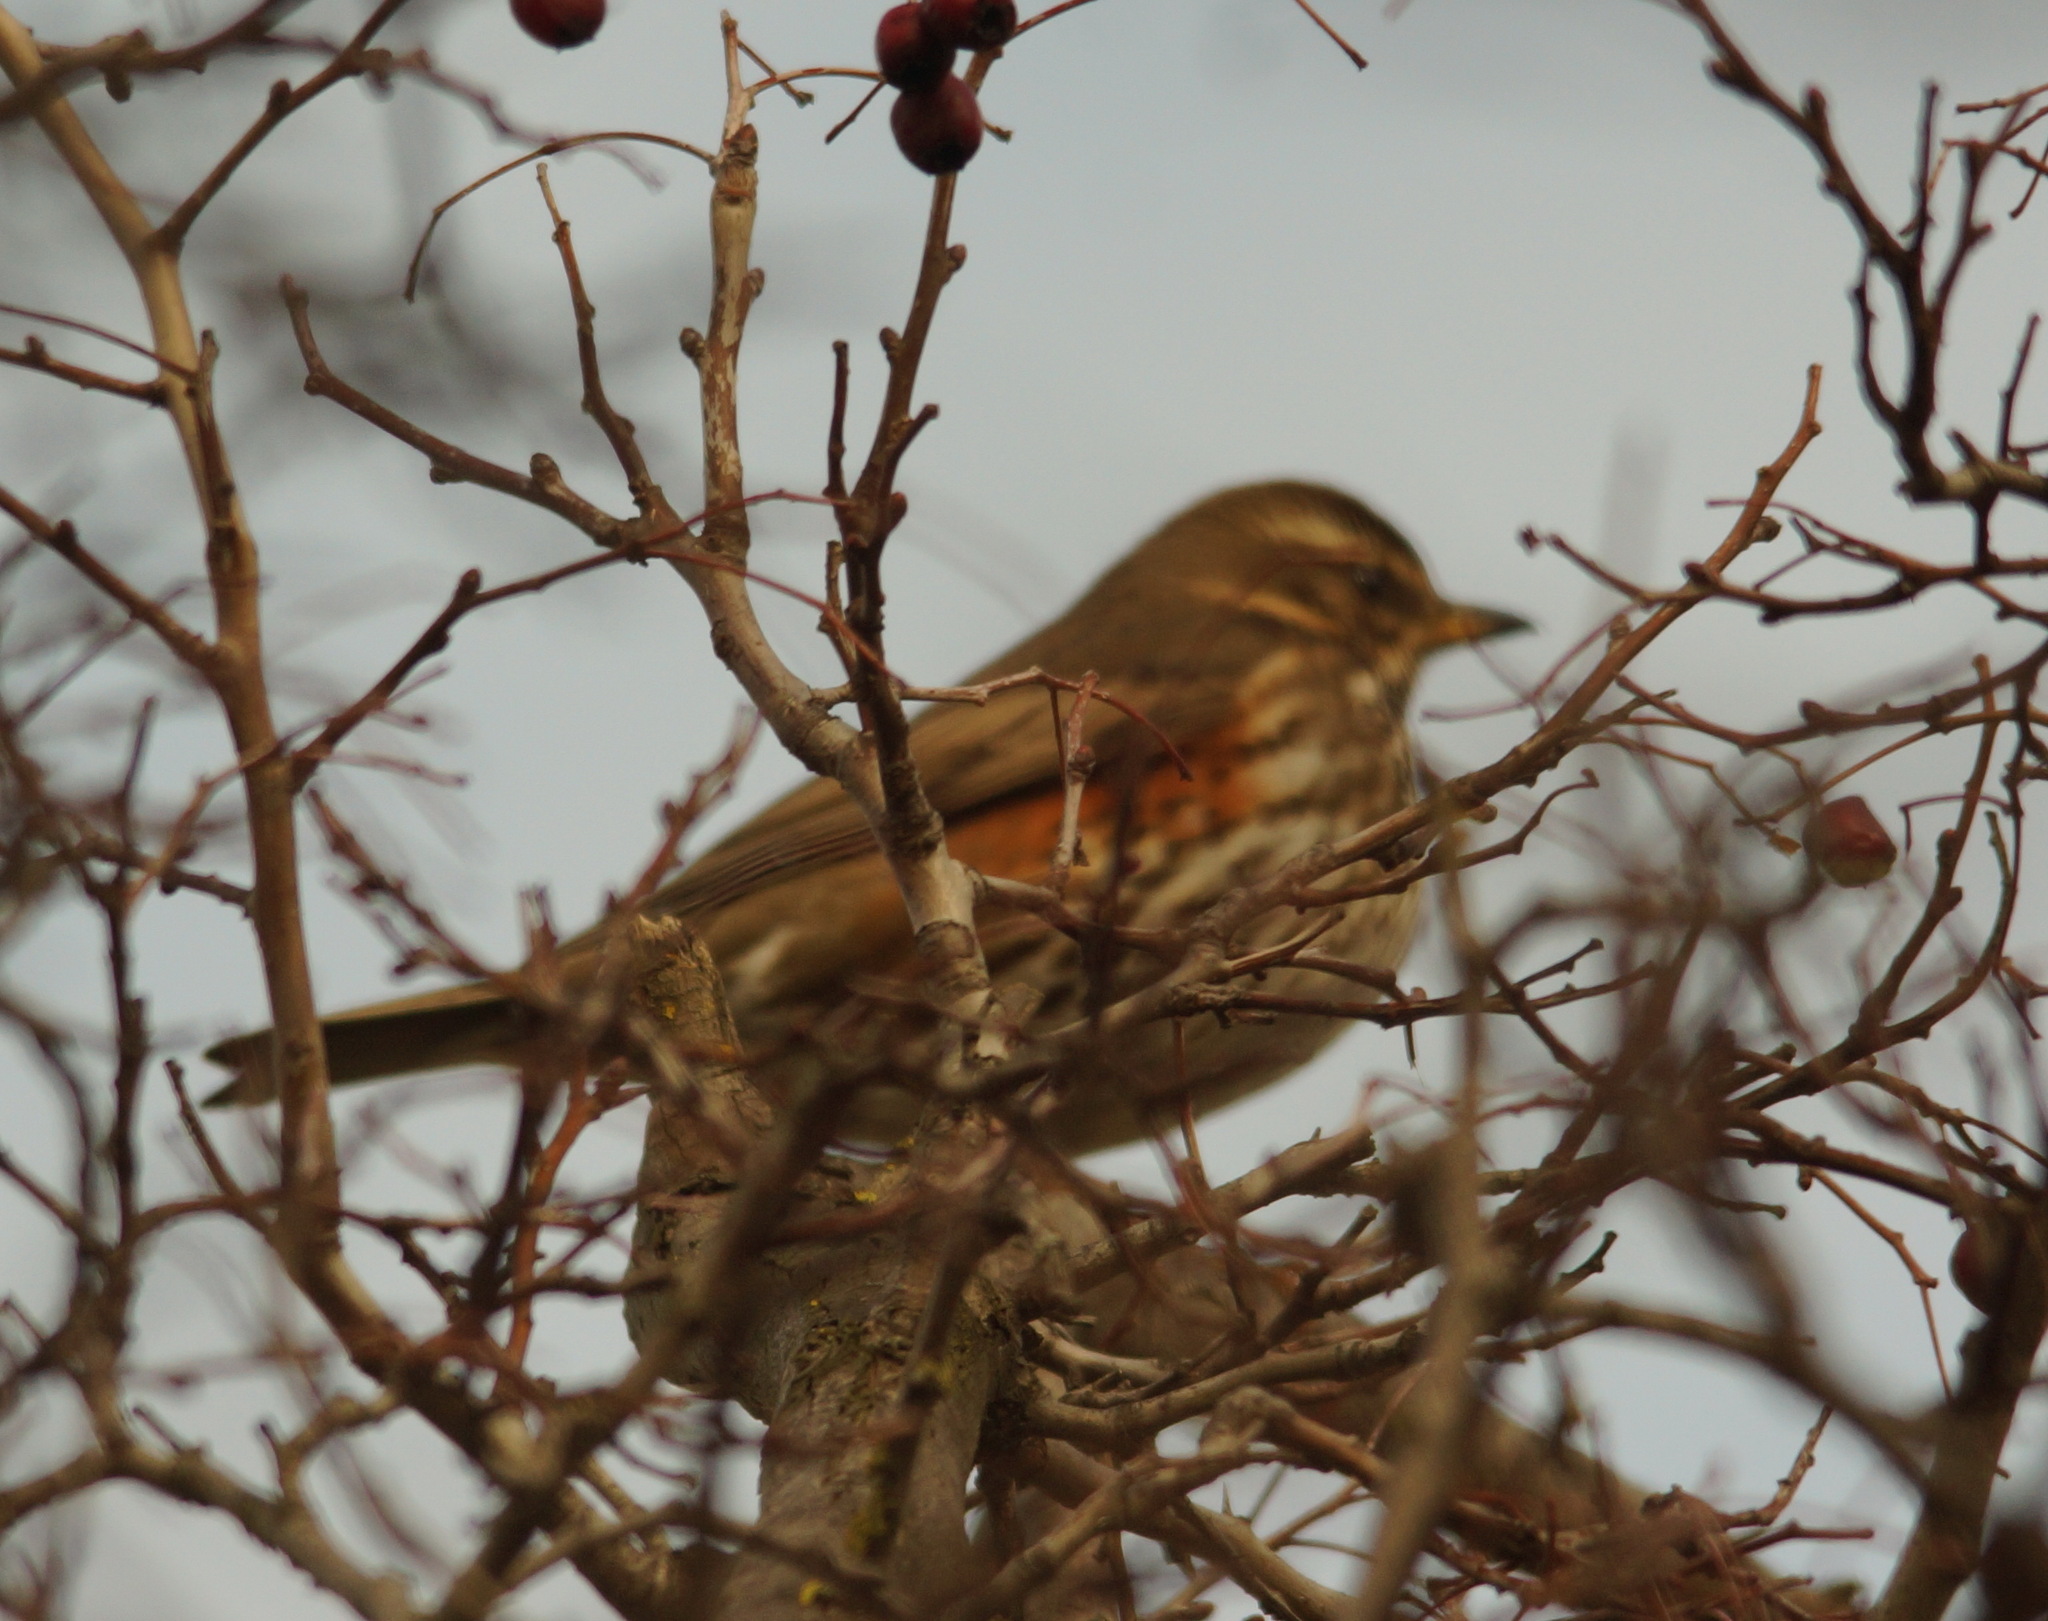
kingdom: Animalia
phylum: Chordata
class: Aves
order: Passeriformes
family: Turdidae
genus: Turdus
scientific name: Turdus iliacus
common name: Redwing
